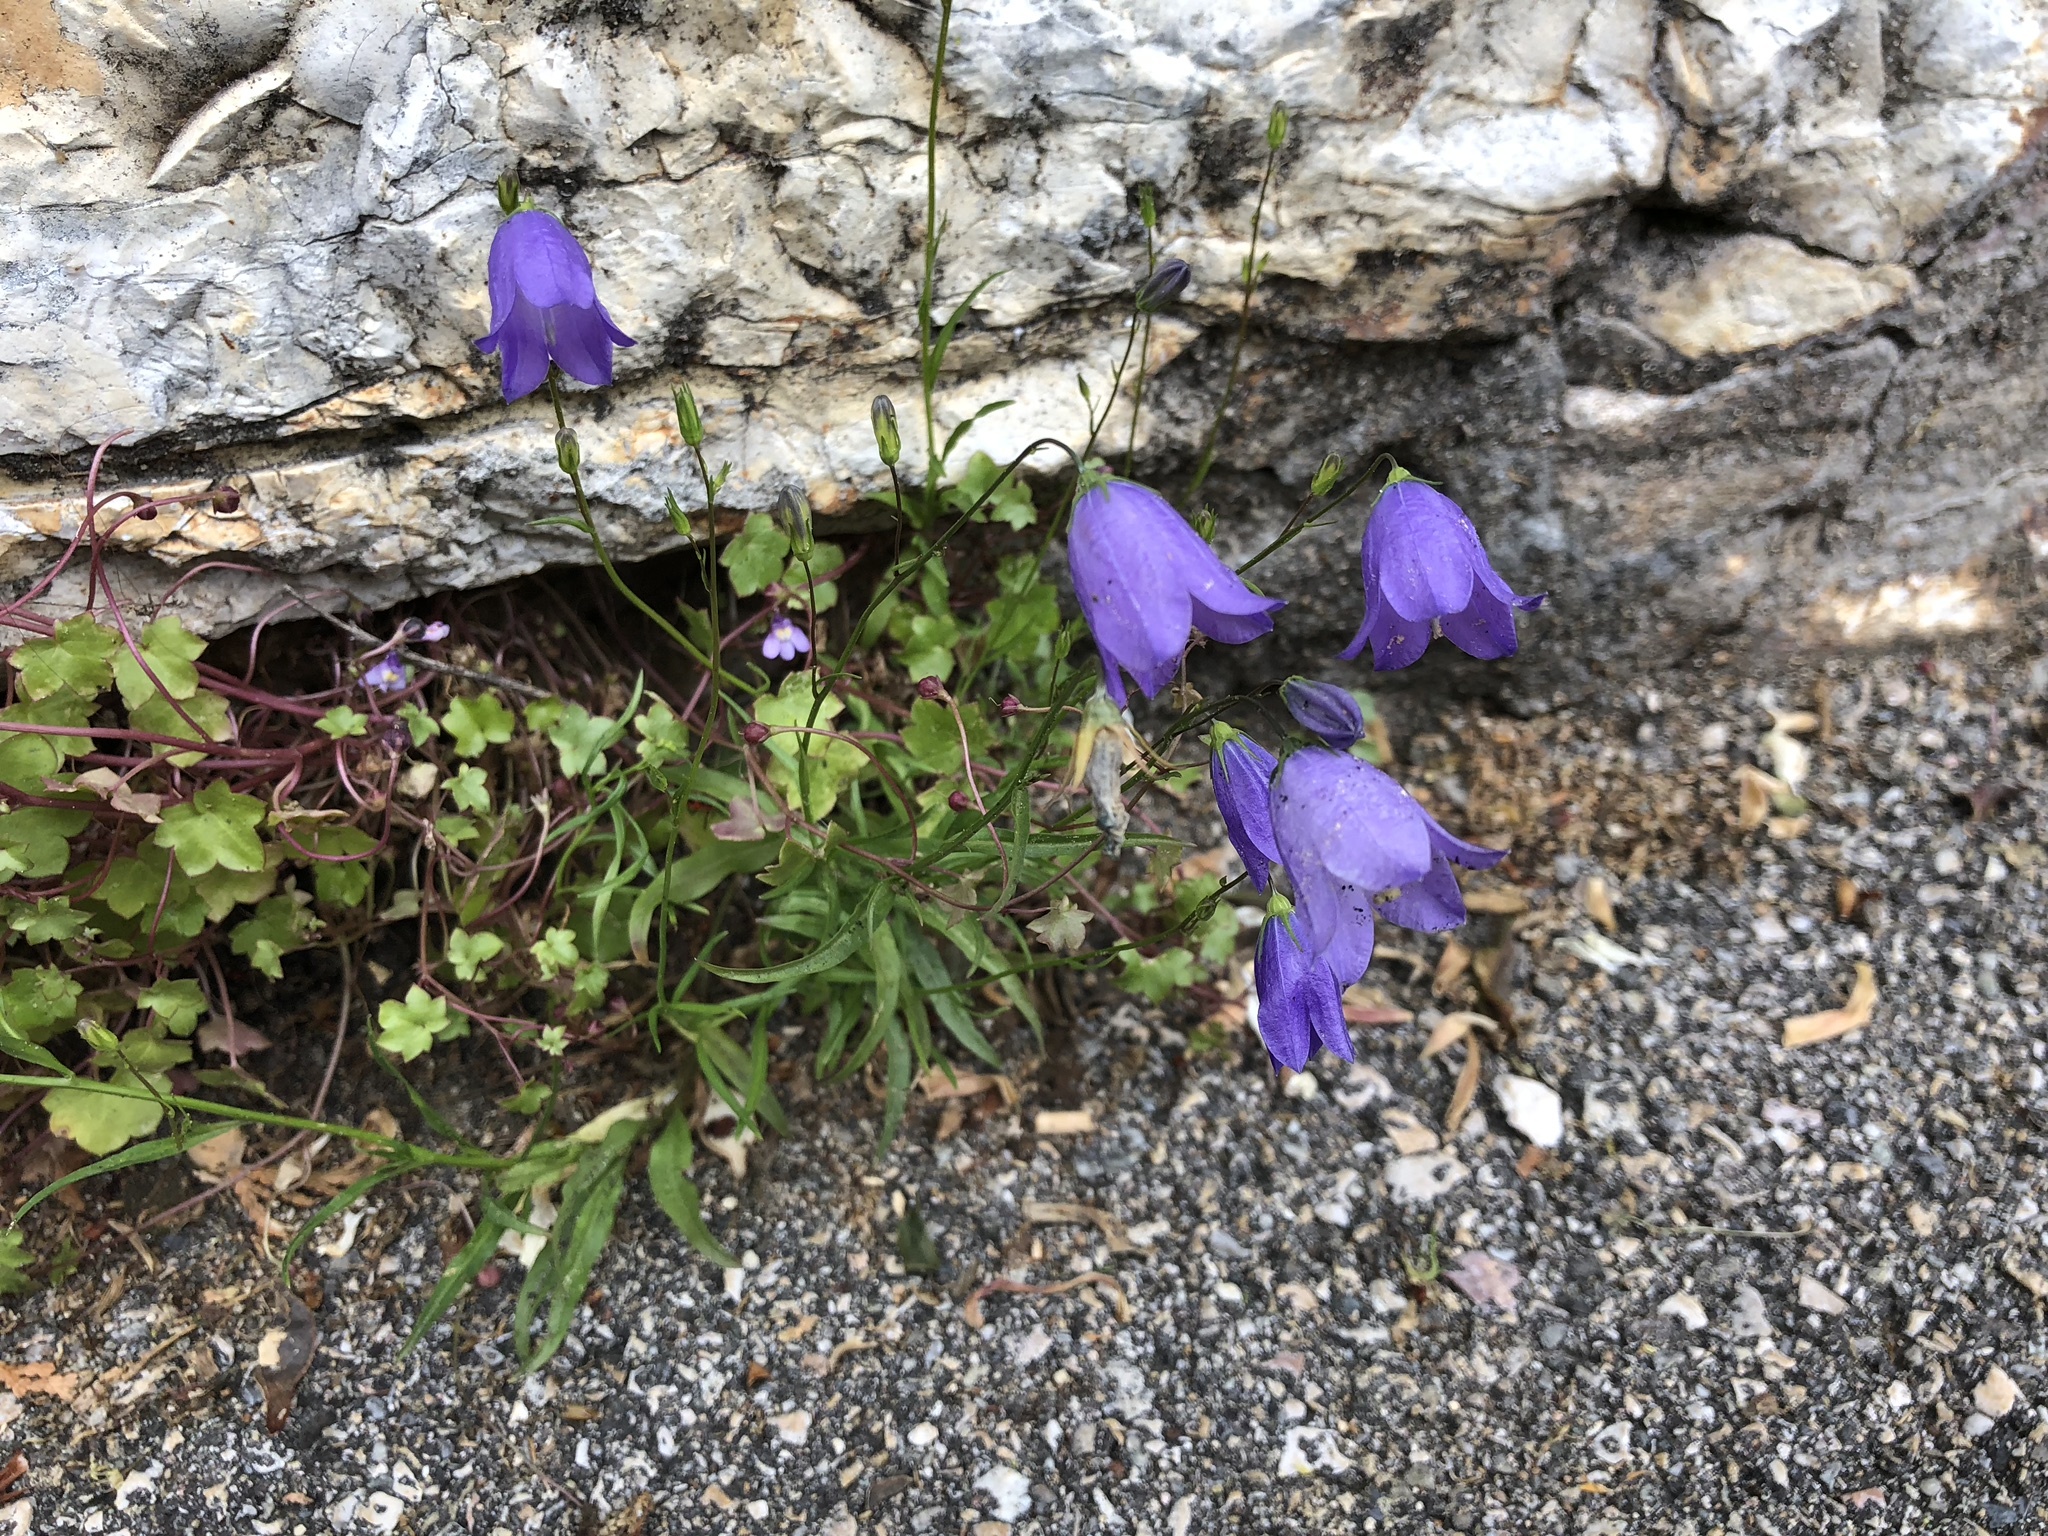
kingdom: Plantae
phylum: Tracheophyta
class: Magnoliopsida
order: Asterales
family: Campanulaceae
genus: Campanula
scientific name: Campanula rotundifolia
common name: Harebell
